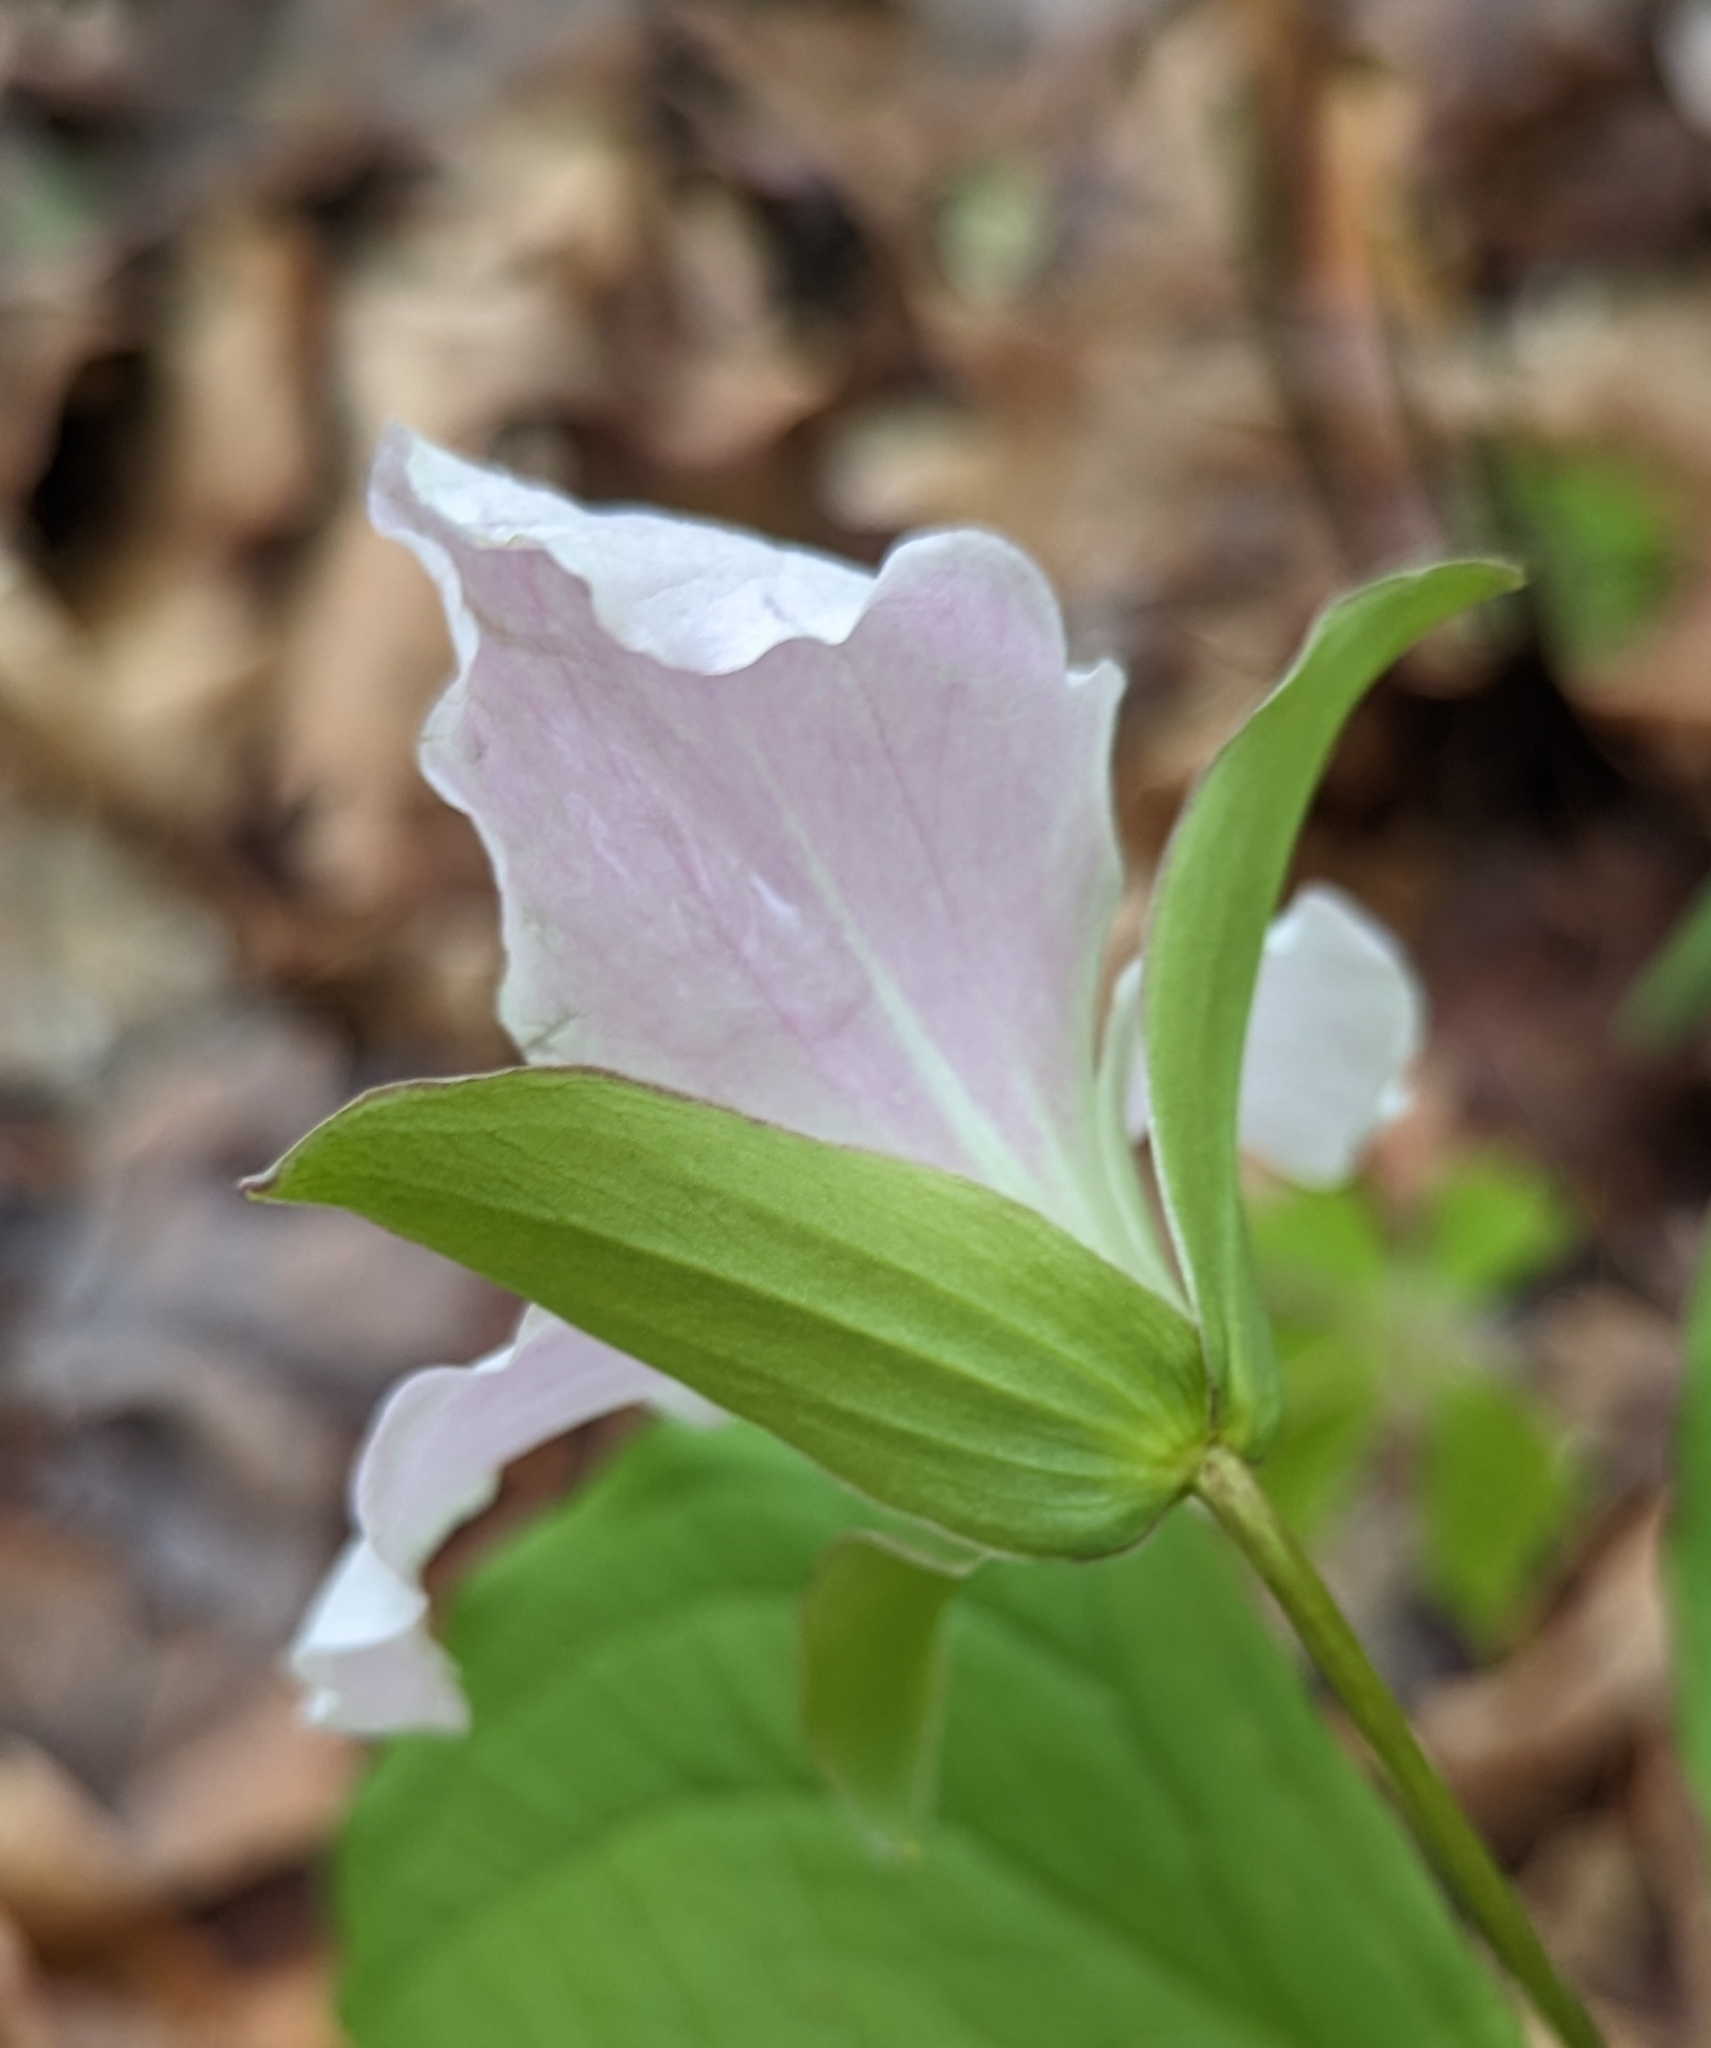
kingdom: Plantae
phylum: Tracheophyta
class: Liliopsida
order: Liliales
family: Melanthiaceae
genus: Trillium
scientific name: Trillium grandiflorum
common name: Great white trillium
